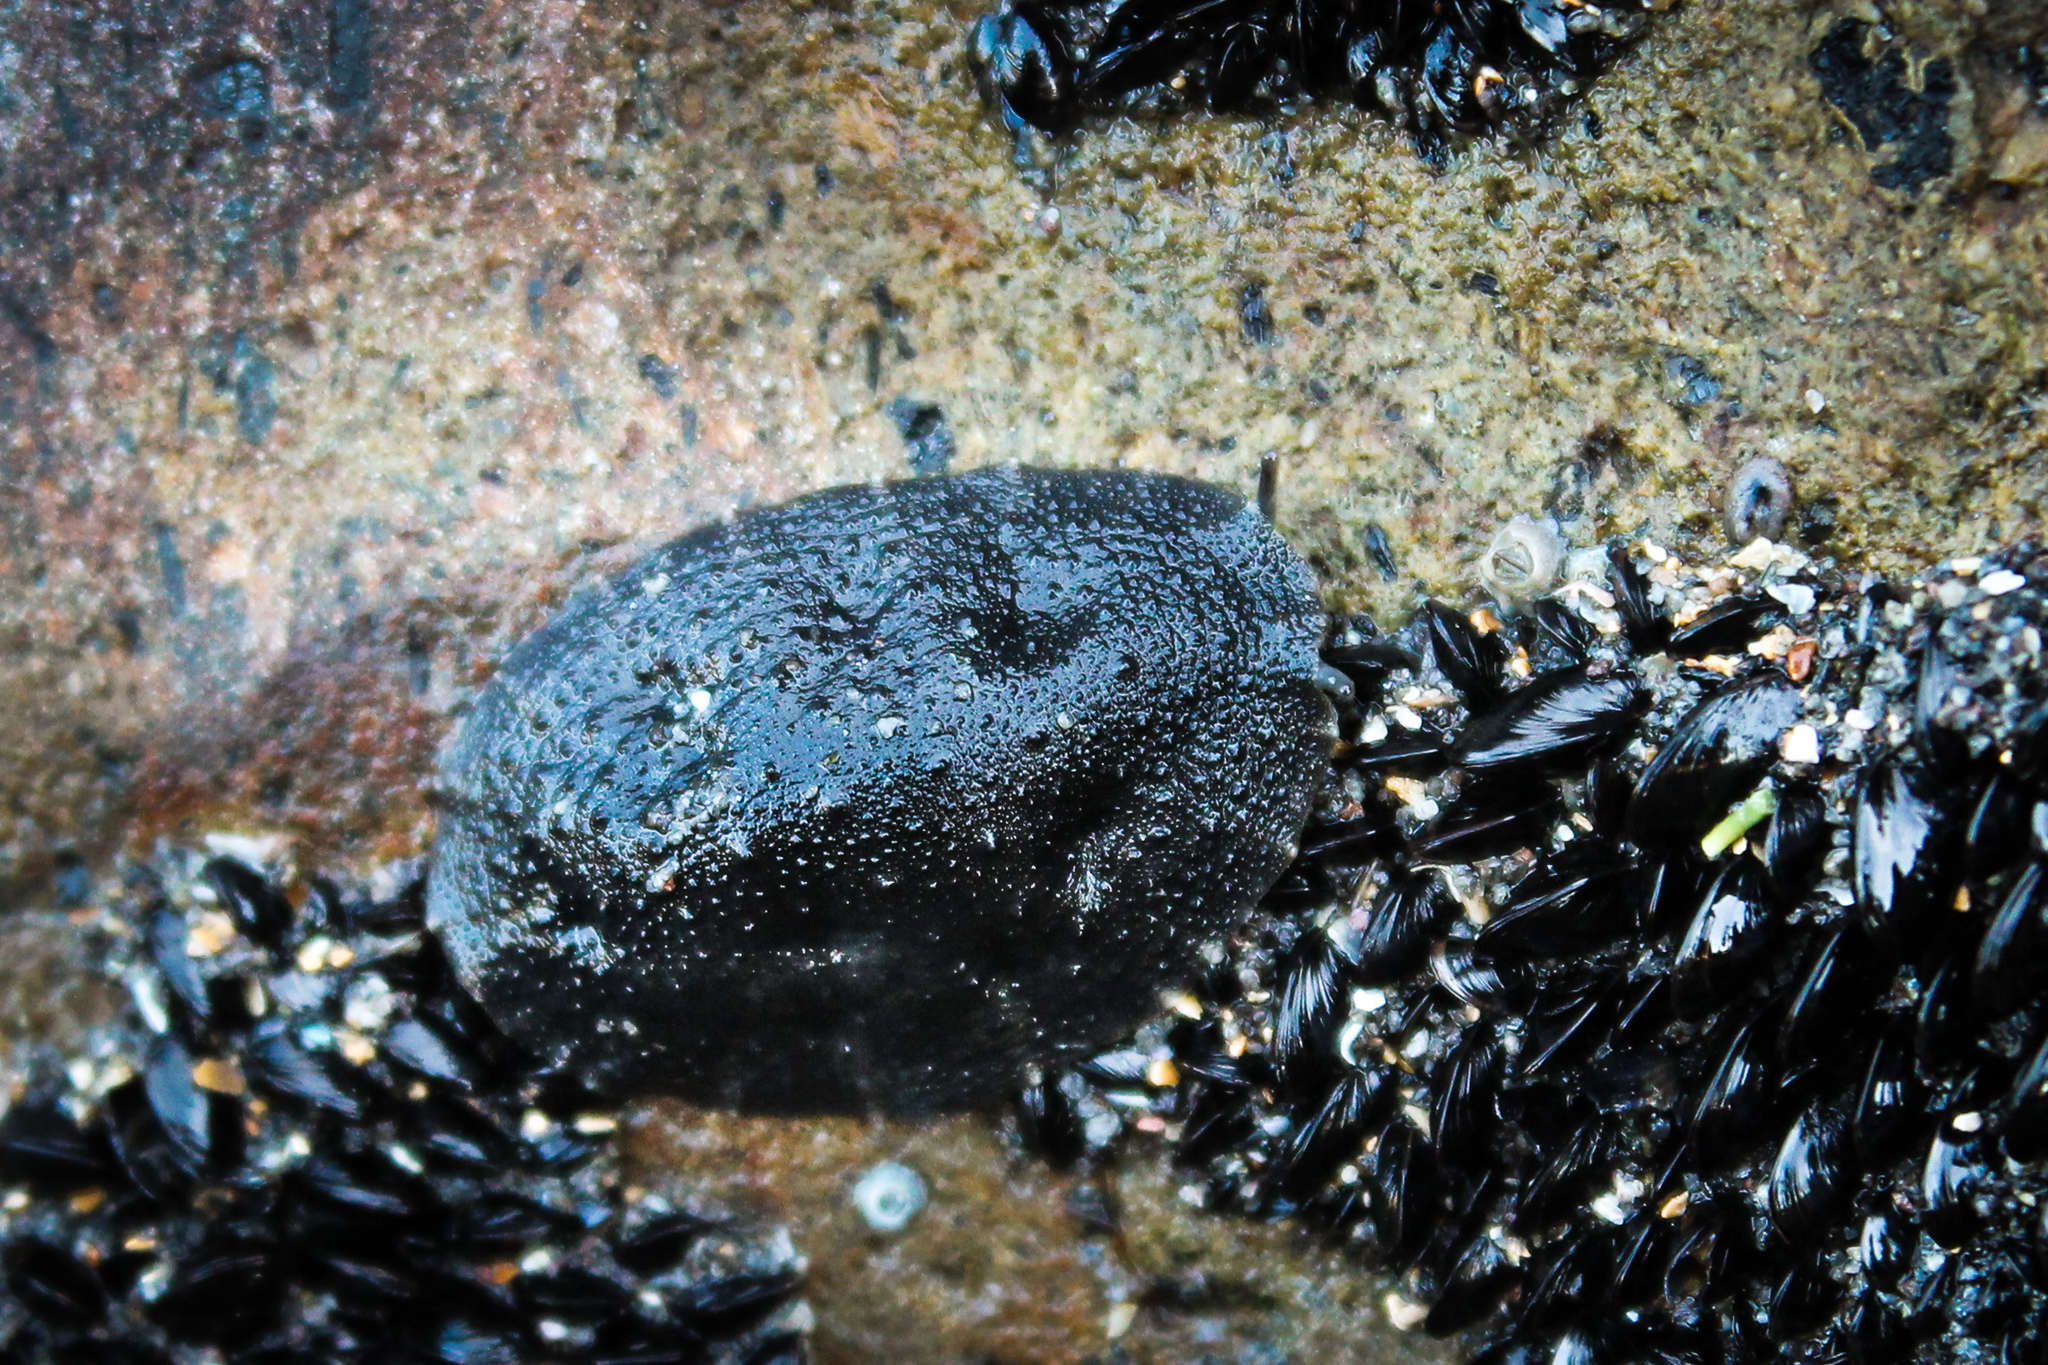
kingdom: Animalia
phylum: Mollusca
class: Gastropoda
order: Systellommatophora
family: Onchidiidae
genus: Onchidella
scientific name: Onchidella nigricans
